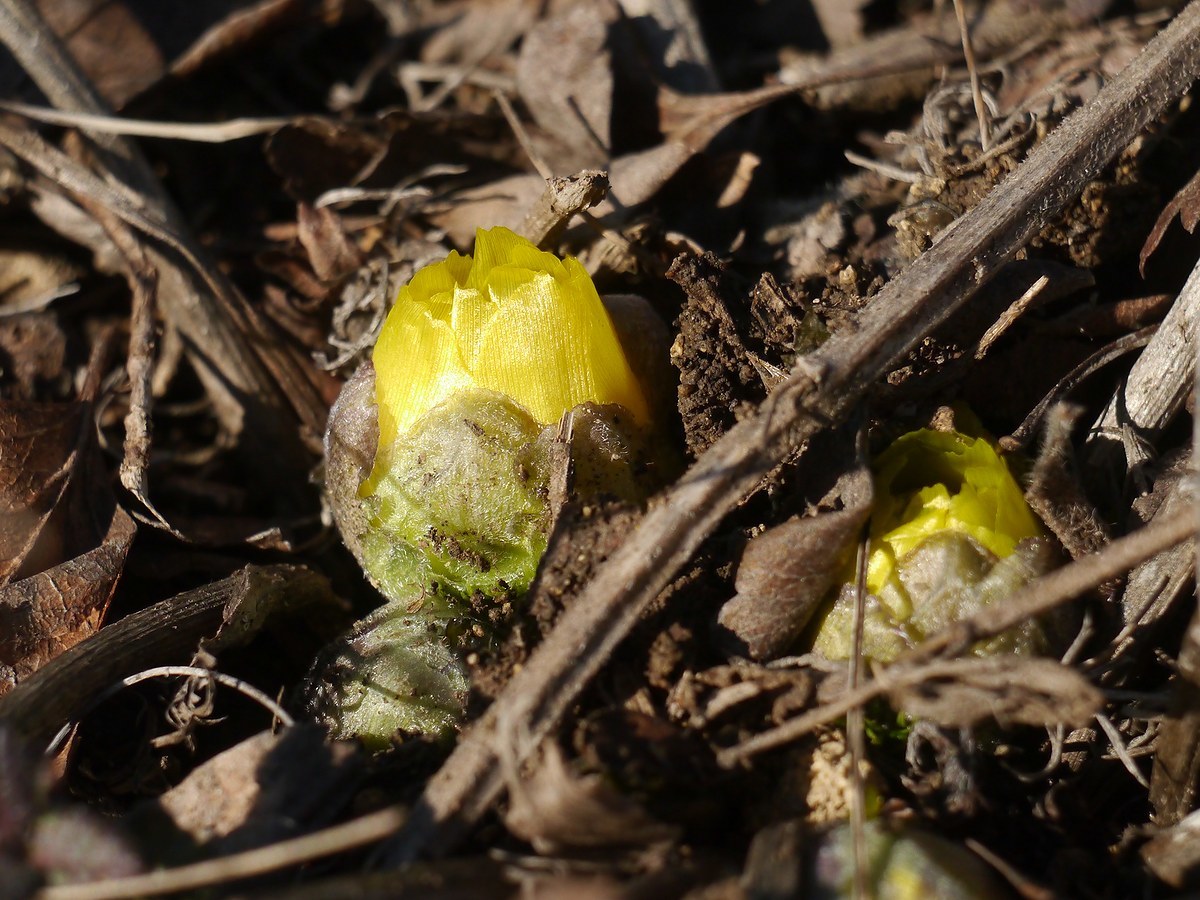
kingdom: Plantae
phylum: Tracheophyta
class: Magnoliopsida
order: Ranunculales
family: Ranunculaceae
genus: Adonis
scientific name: Adonis vernalis
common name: Yellow pheasants-eye
